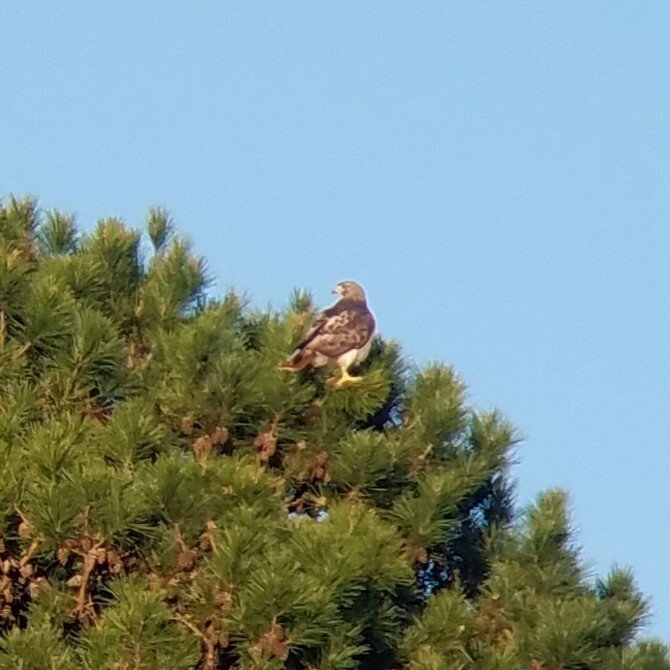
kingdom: Animalia
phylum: Chordata
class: Aves
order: Accipitriformes
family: Accipitridae
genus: Buteo
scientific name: Buteo jamaicensis
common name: Red-tailed hawk
